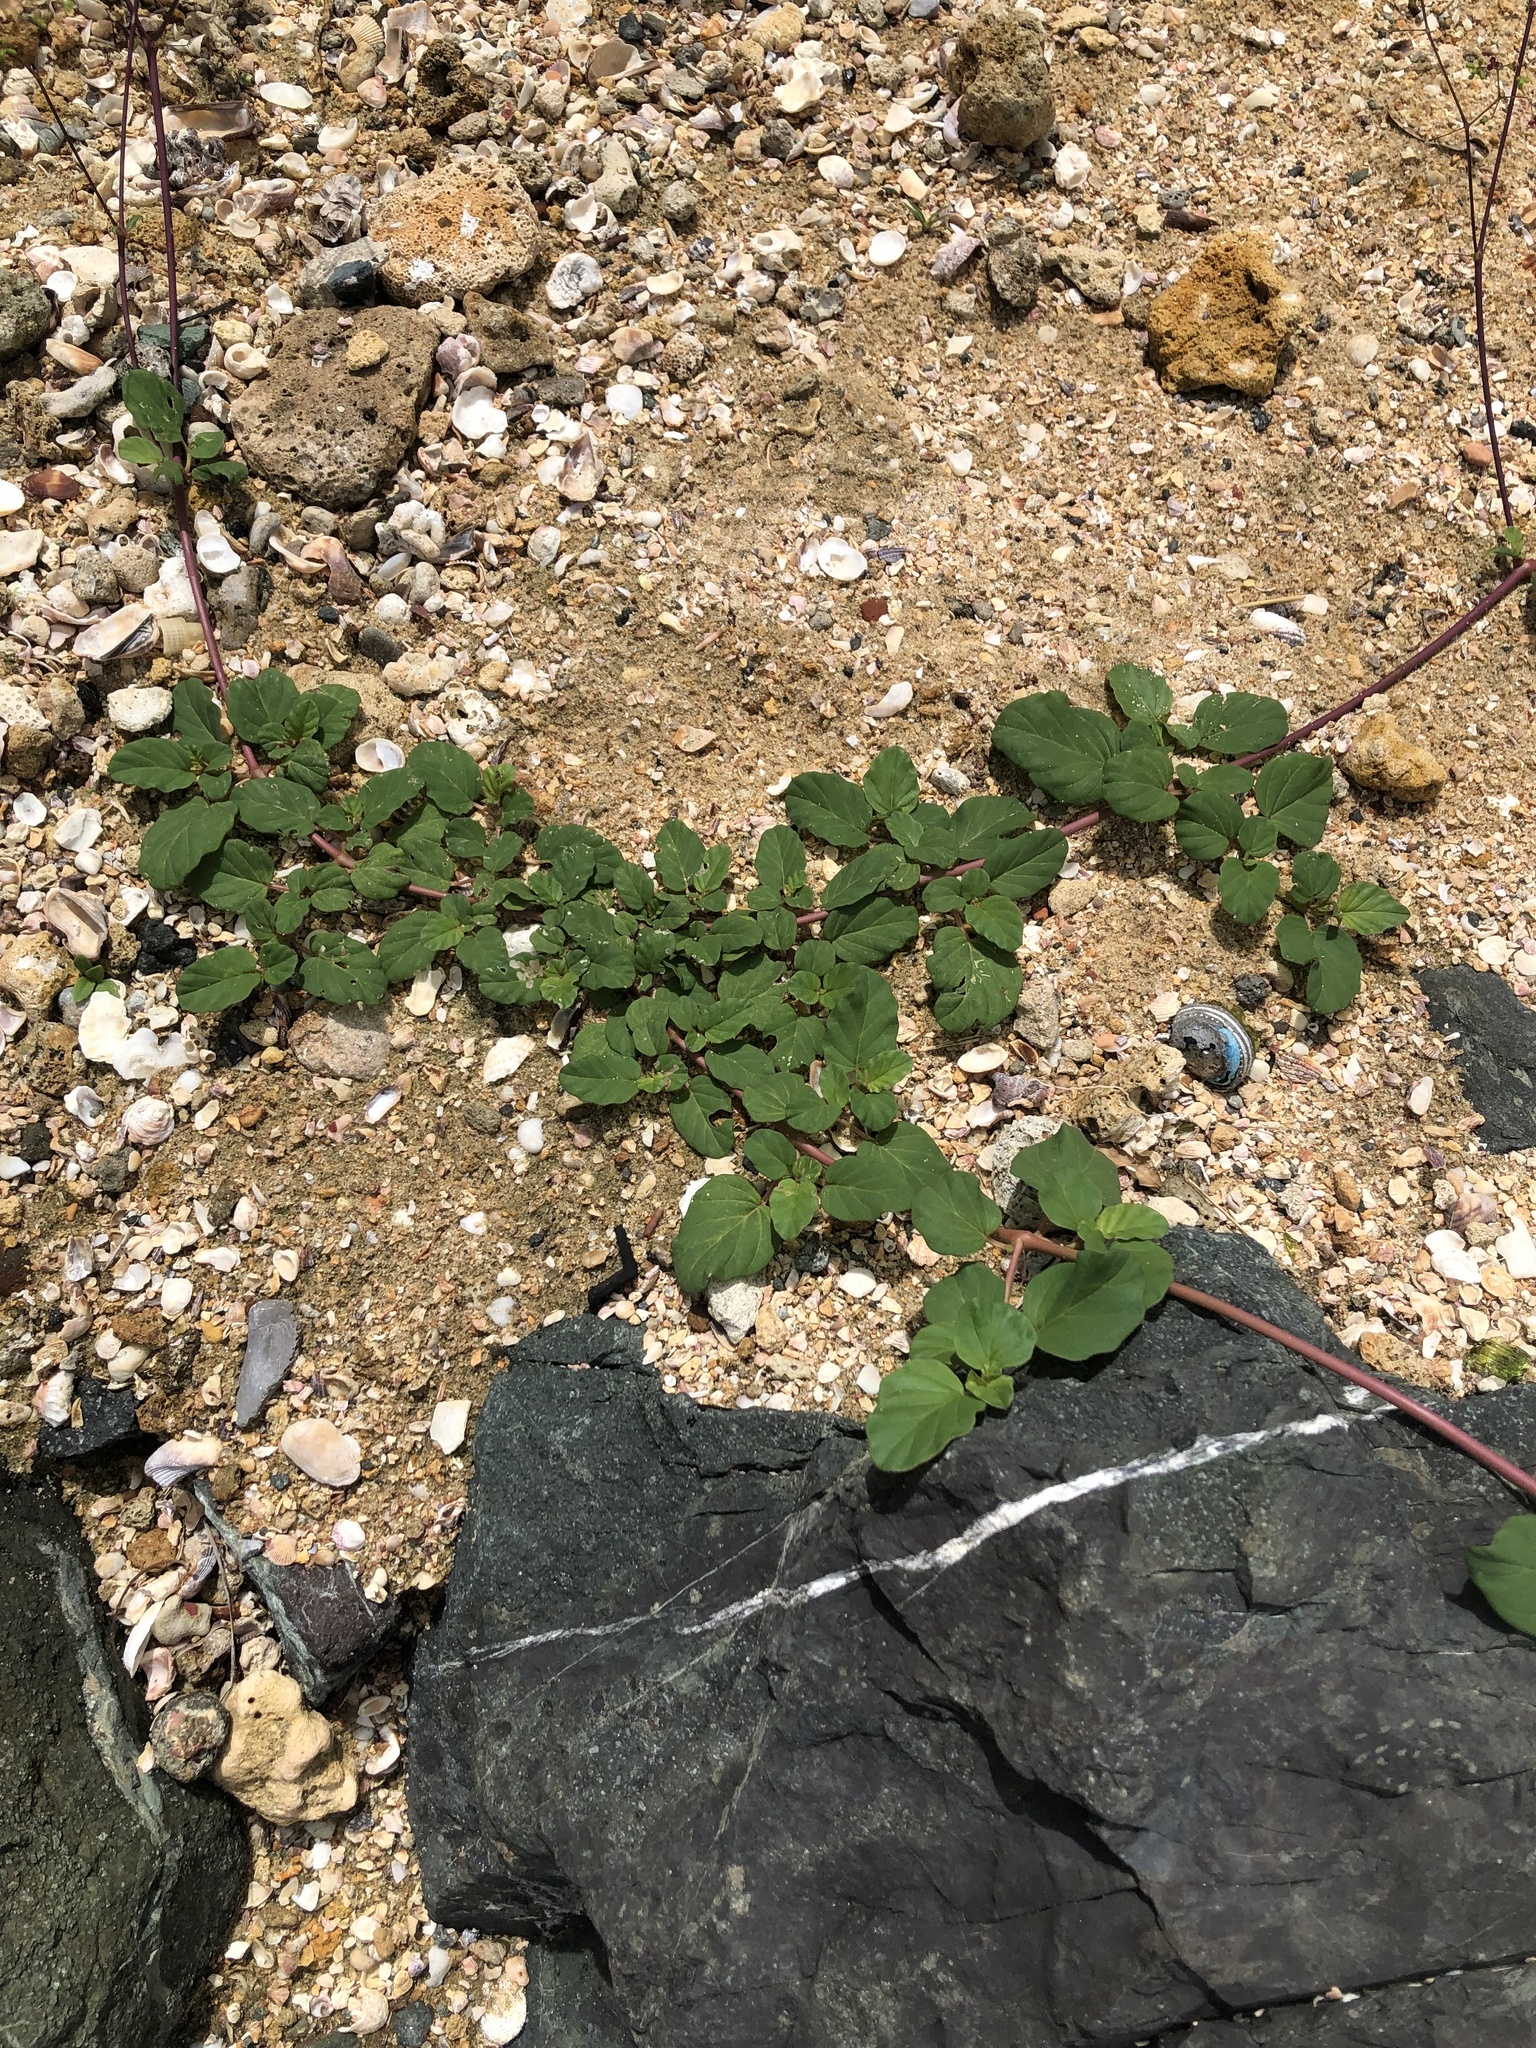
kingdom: Plantae
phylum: Tracheophyta
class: Magnoliopsida
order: Caryophyllales
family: Nyctaginaceae
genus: Boerhavia
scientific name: Boerhavia coccinea
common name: Scarlet spiderling
